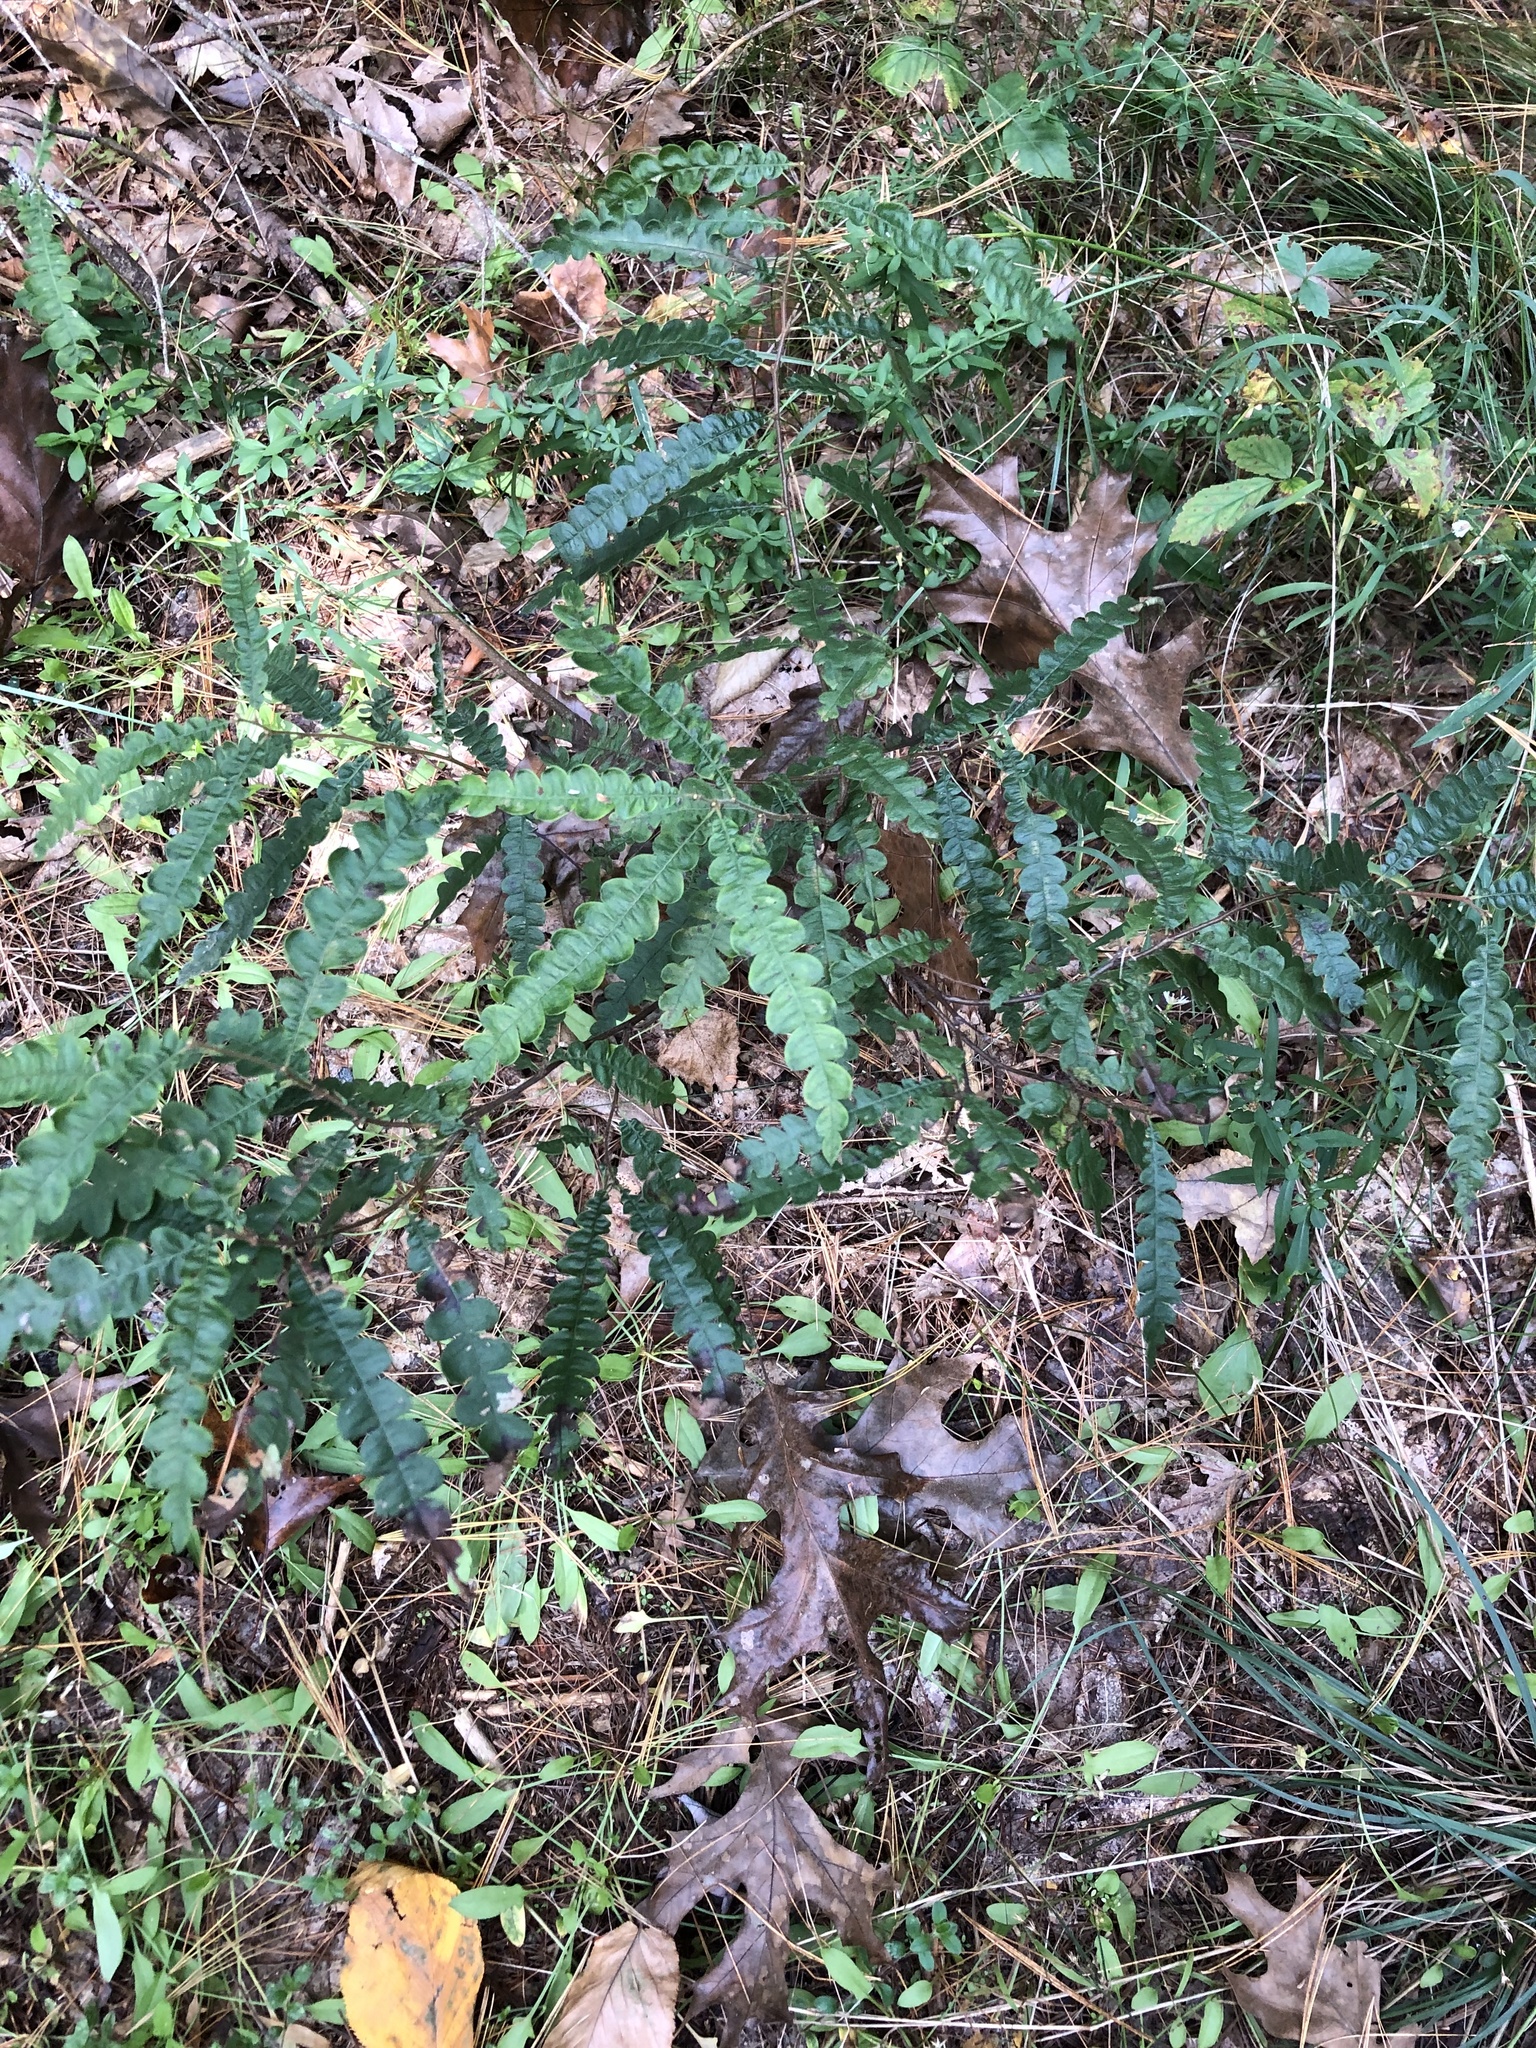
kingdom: Plantae
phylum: Tracheophyta
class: Magnoliopsida
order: Fagales
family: Myricaceae
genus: Comptonia
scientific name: Comptonia peregrina
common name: Sweet-fern
